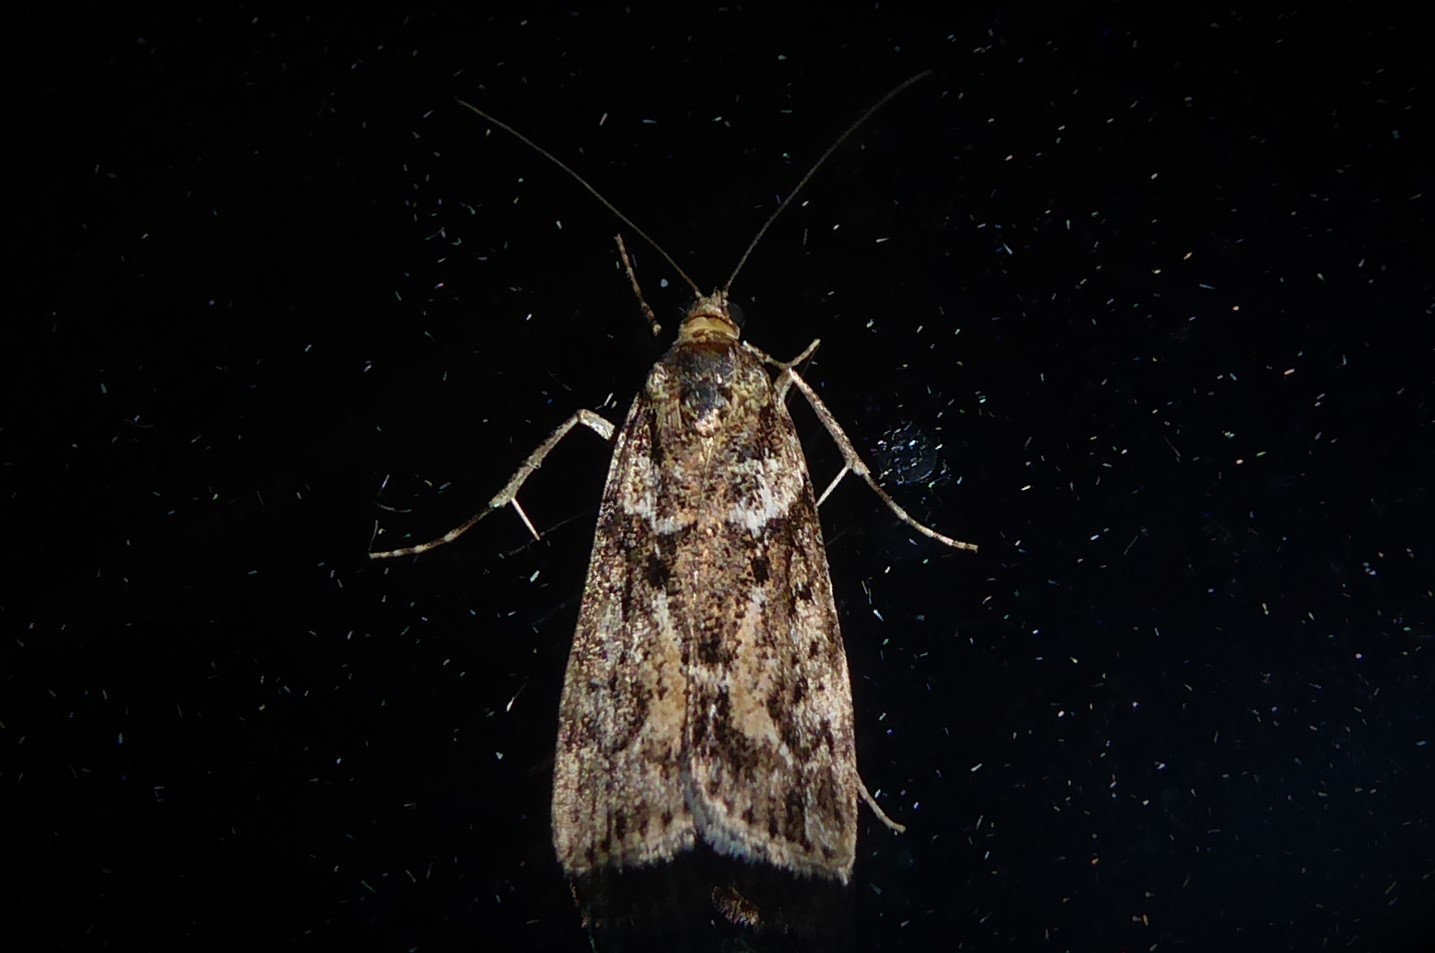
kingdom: Animalia
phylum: Arthropoda
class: Insecta
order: Lepidoptera
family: Crambidae
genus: Eudonia
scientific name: Eudonia submarginalis
